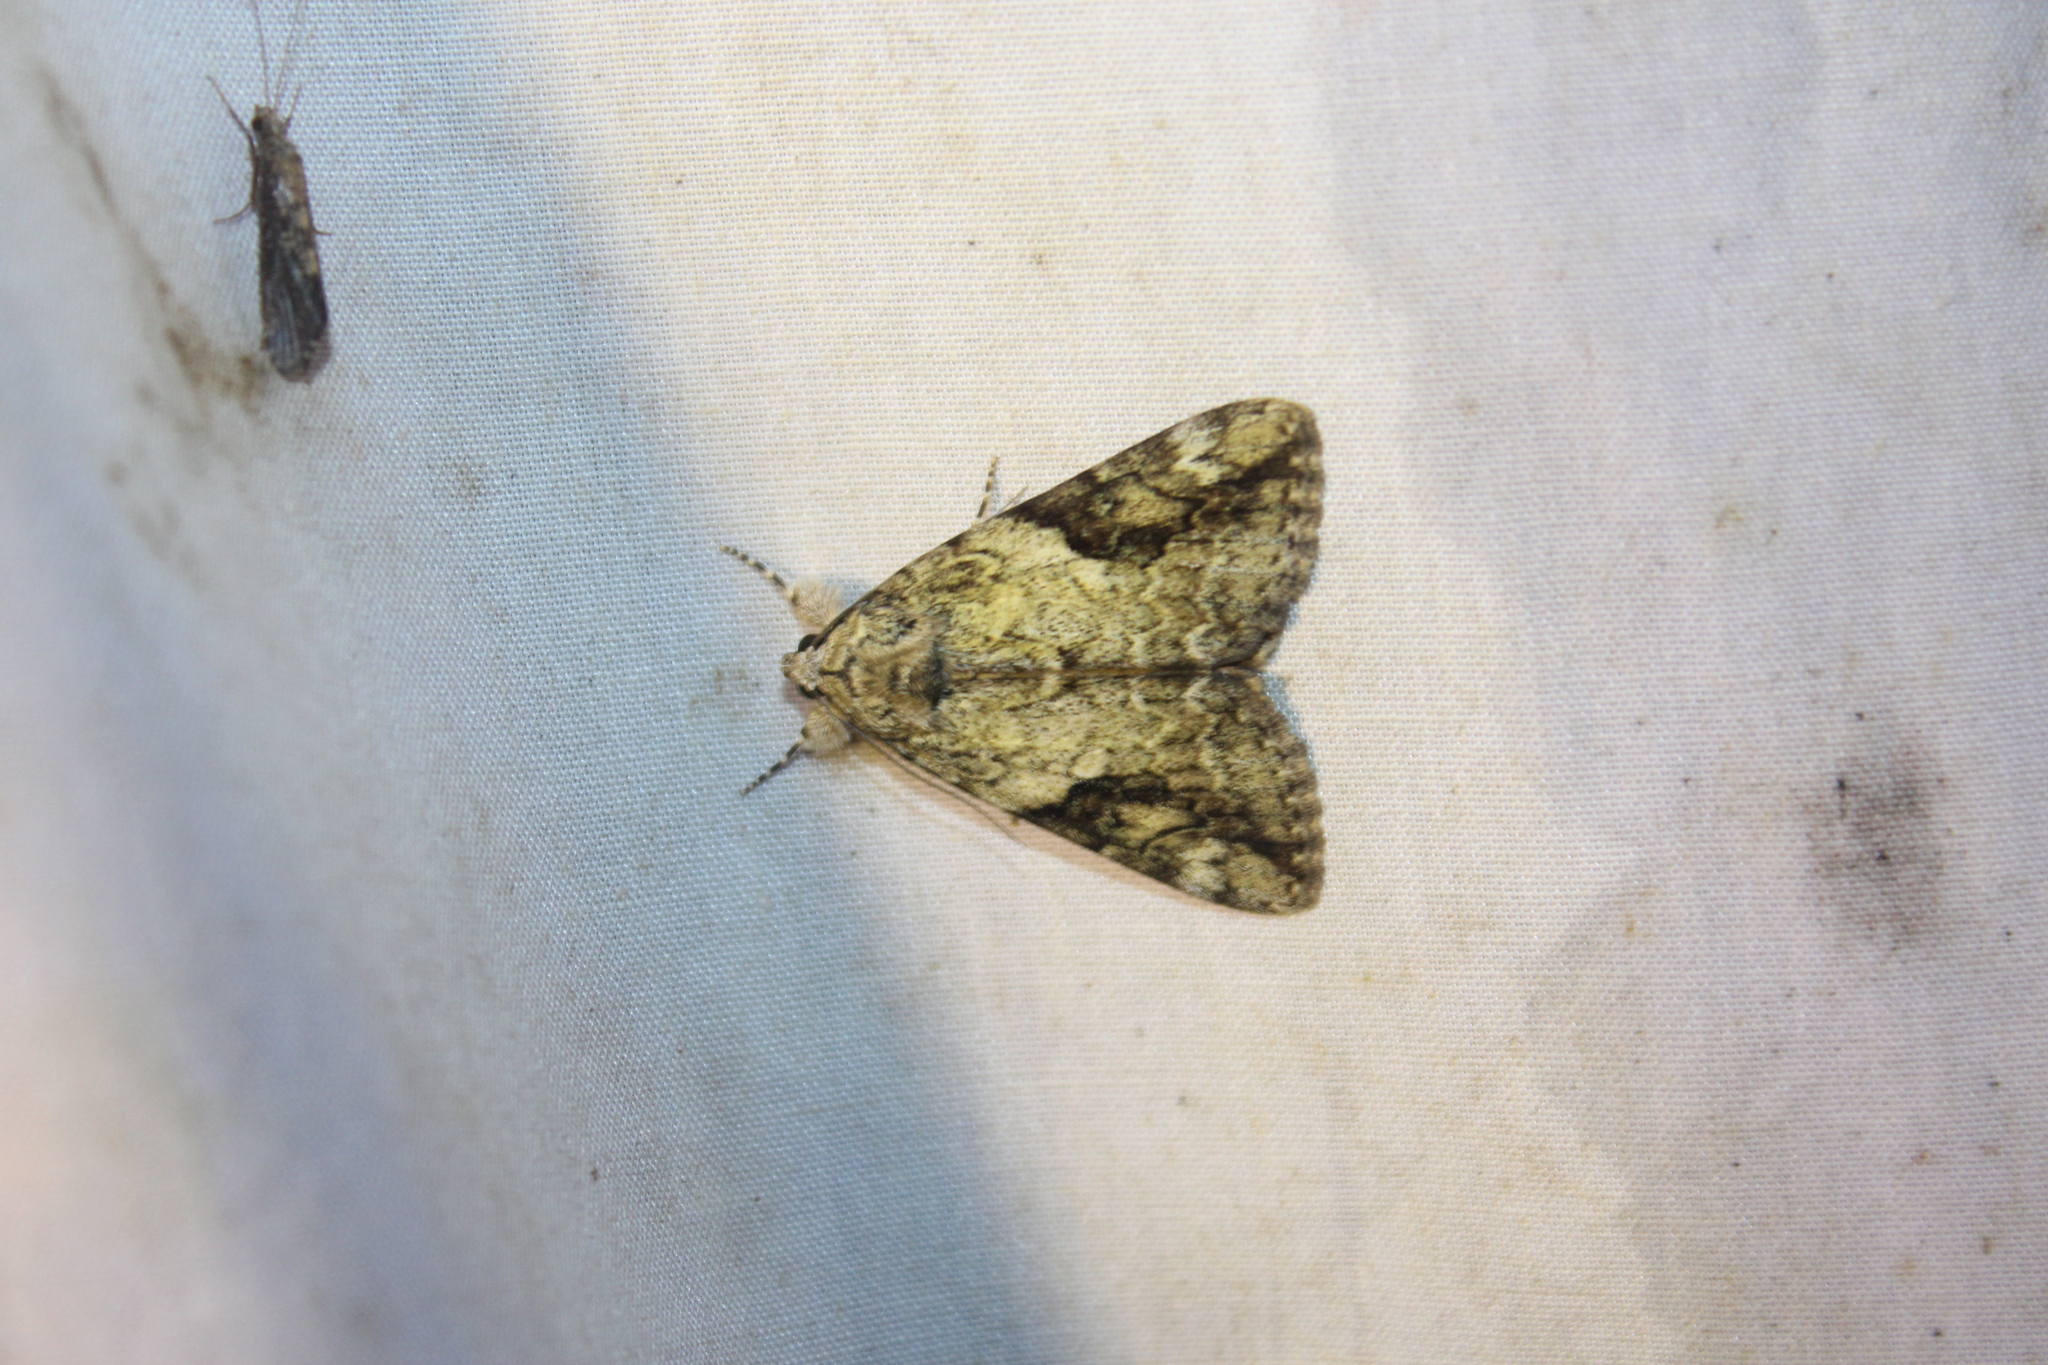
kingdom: Animalia
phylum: Arthropoda
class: Insecta
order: Lepidoptera
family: Erebidae
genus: Catocala
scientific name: Catocala micronympha
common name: Little nymph underwing
